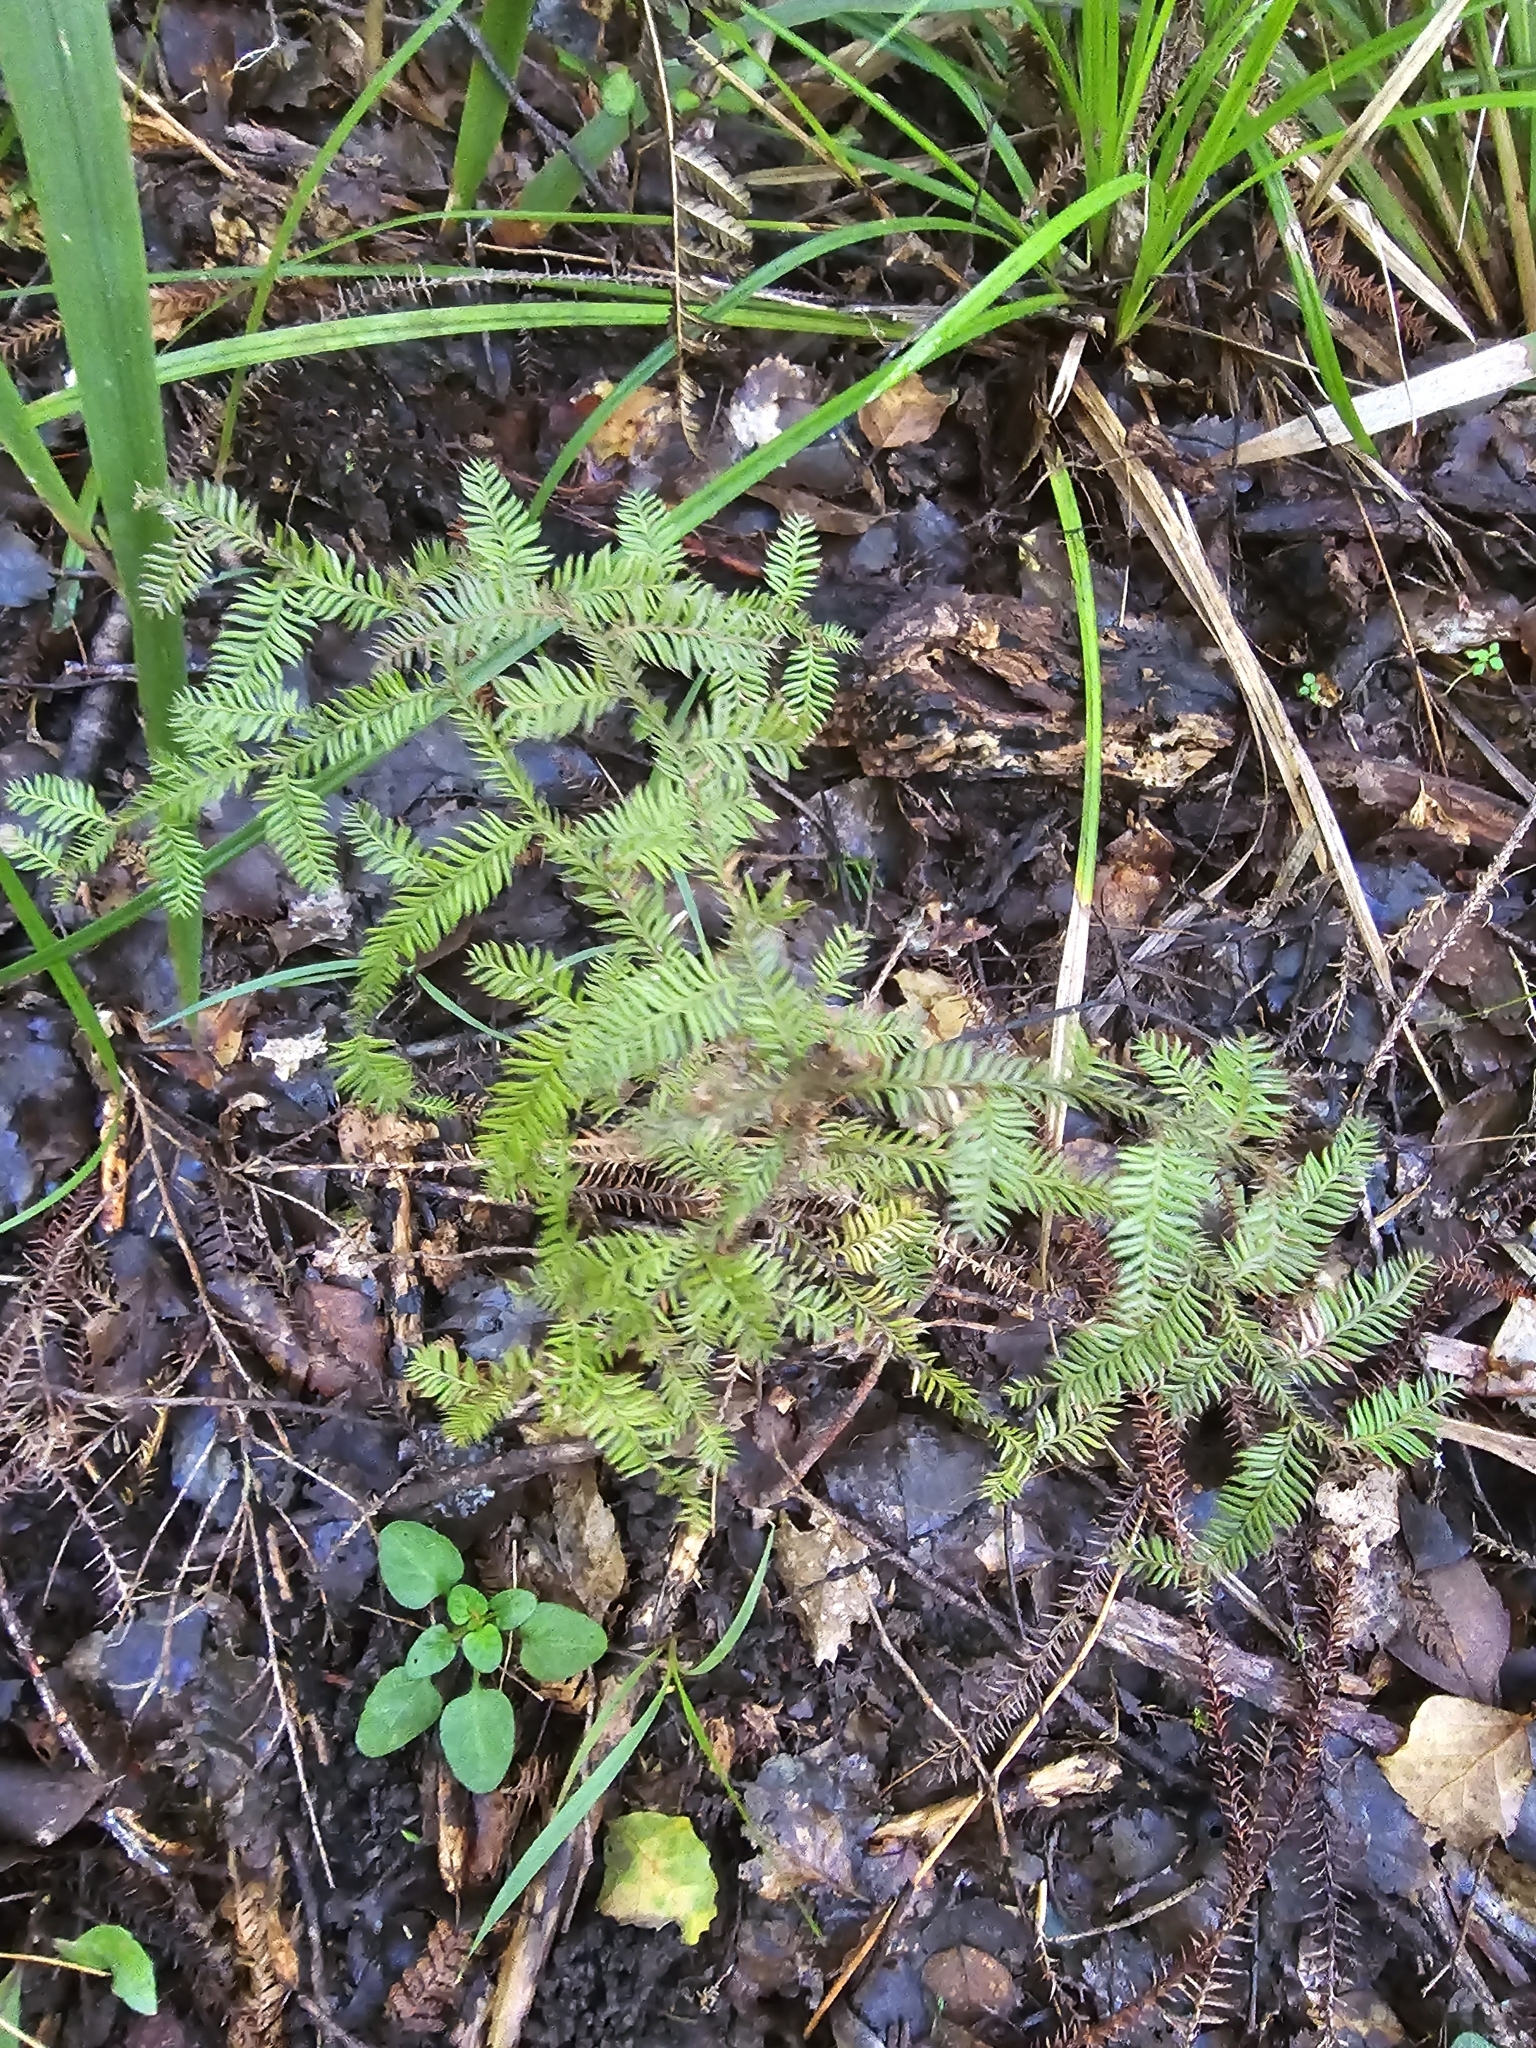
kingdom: Plantae
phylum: Tracheophyta
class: Pinopsida
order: Pinales
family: Podocarpaceae
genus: Dacrycarpus
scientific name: Dacrycarpus dacrydioides
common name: White pine
